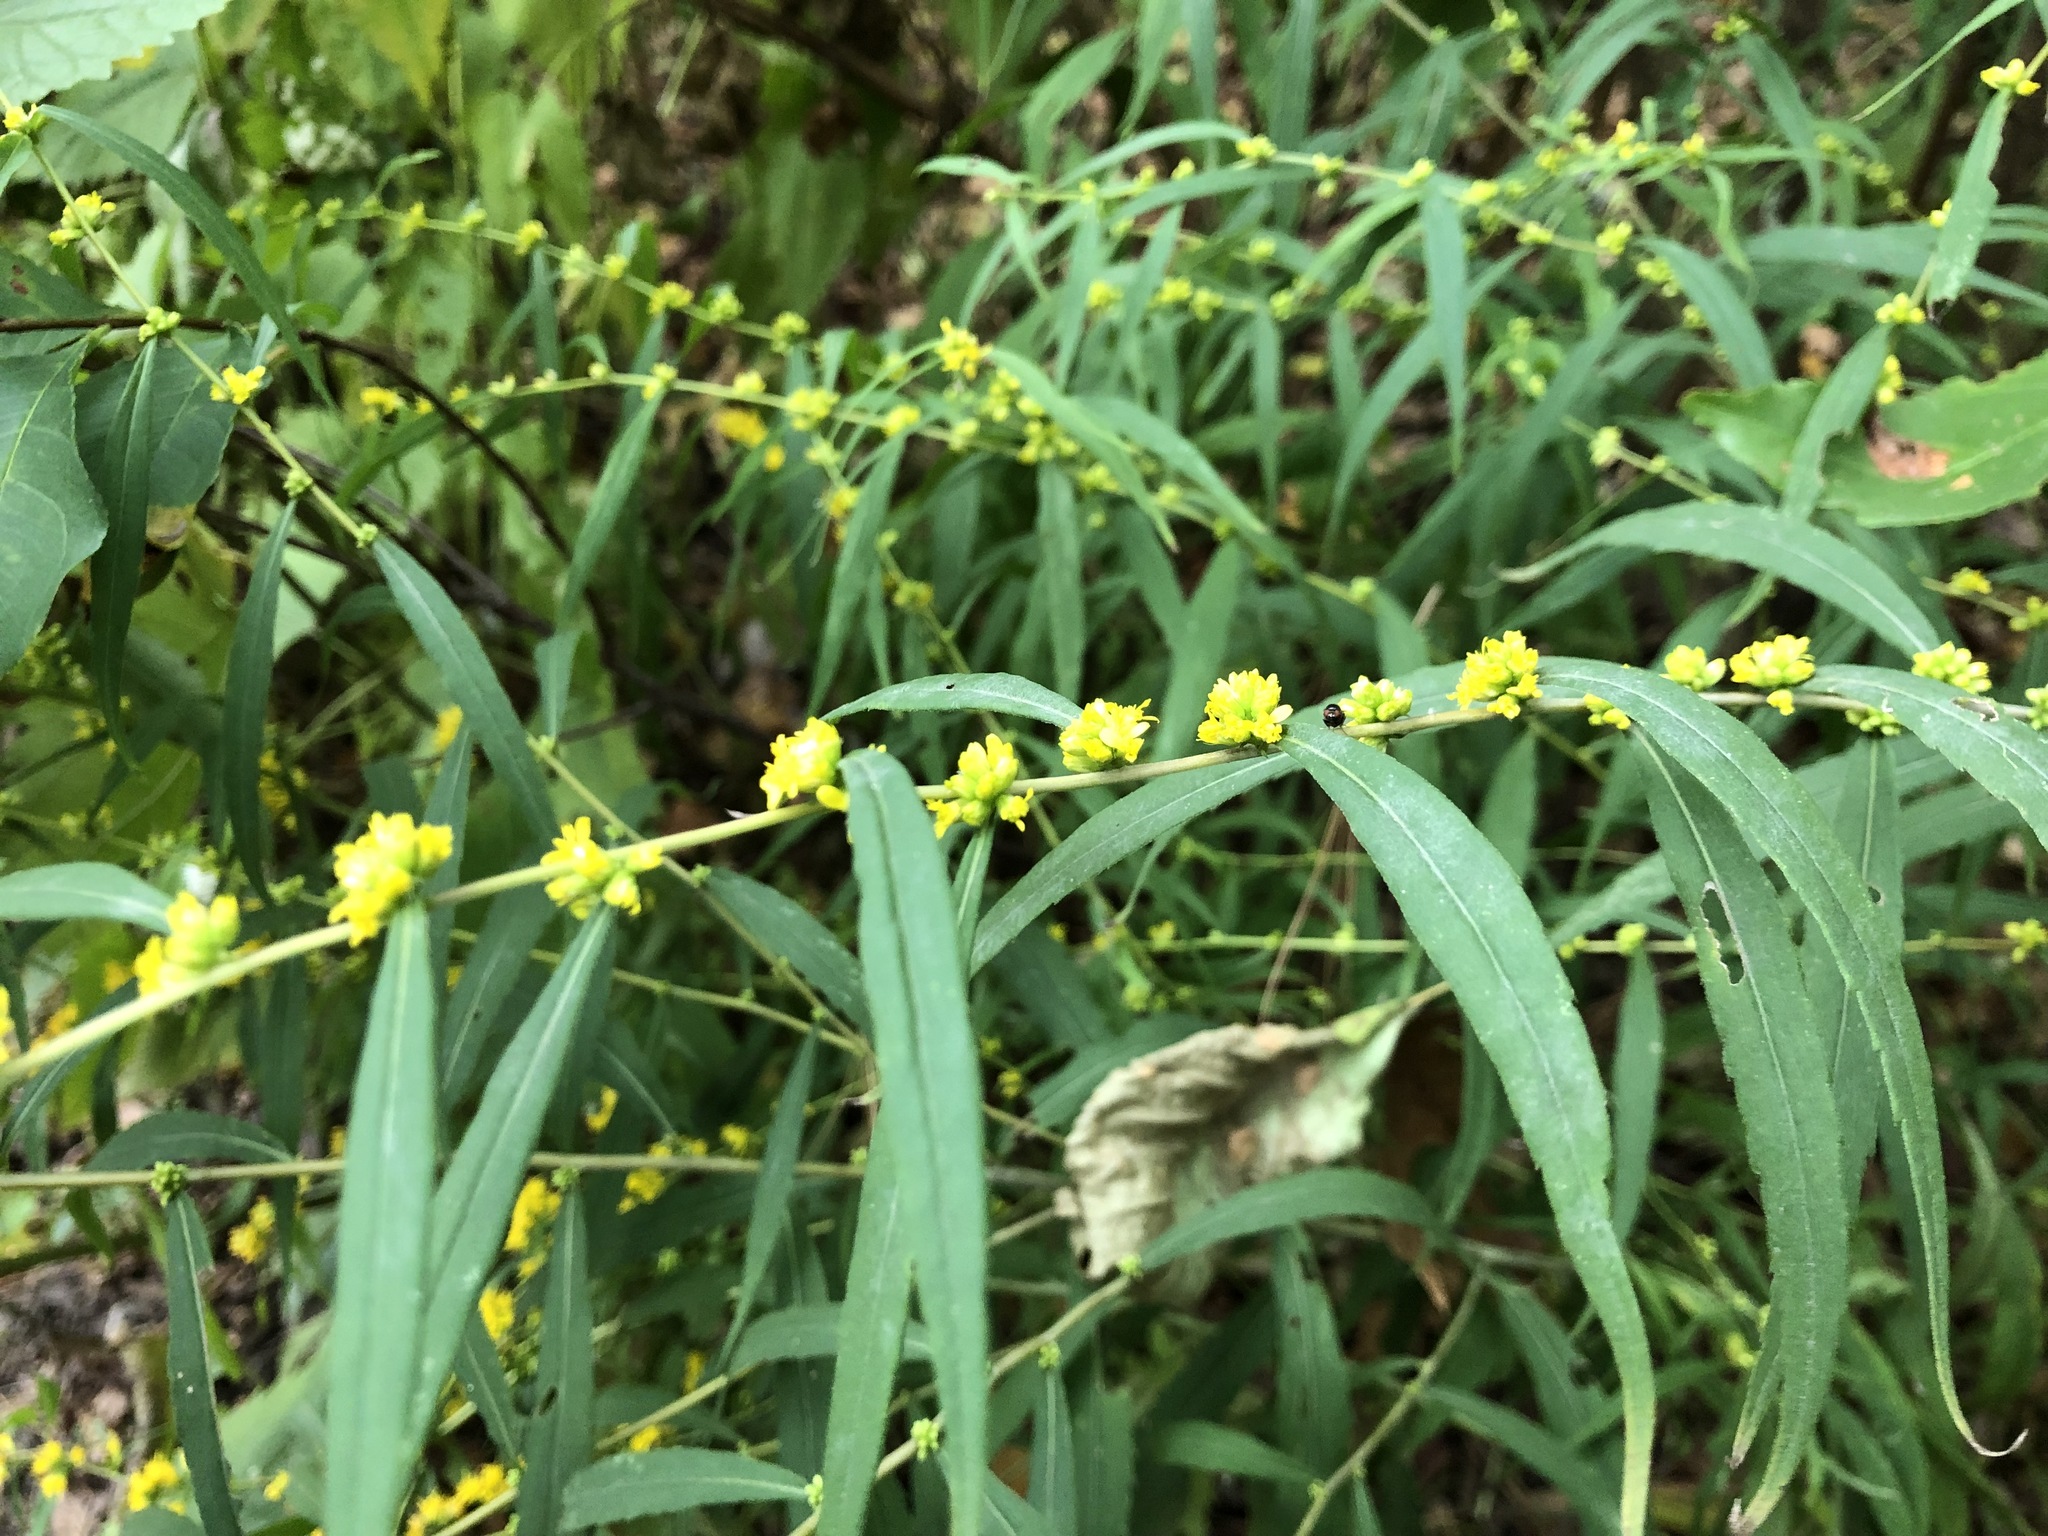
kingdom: Plantae
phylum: Tracheophyta
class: Magnoliopsida
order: Asterales
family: Asteraceae
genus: Solidago
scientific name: Solidago caesia
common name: Woodland goldenrod
